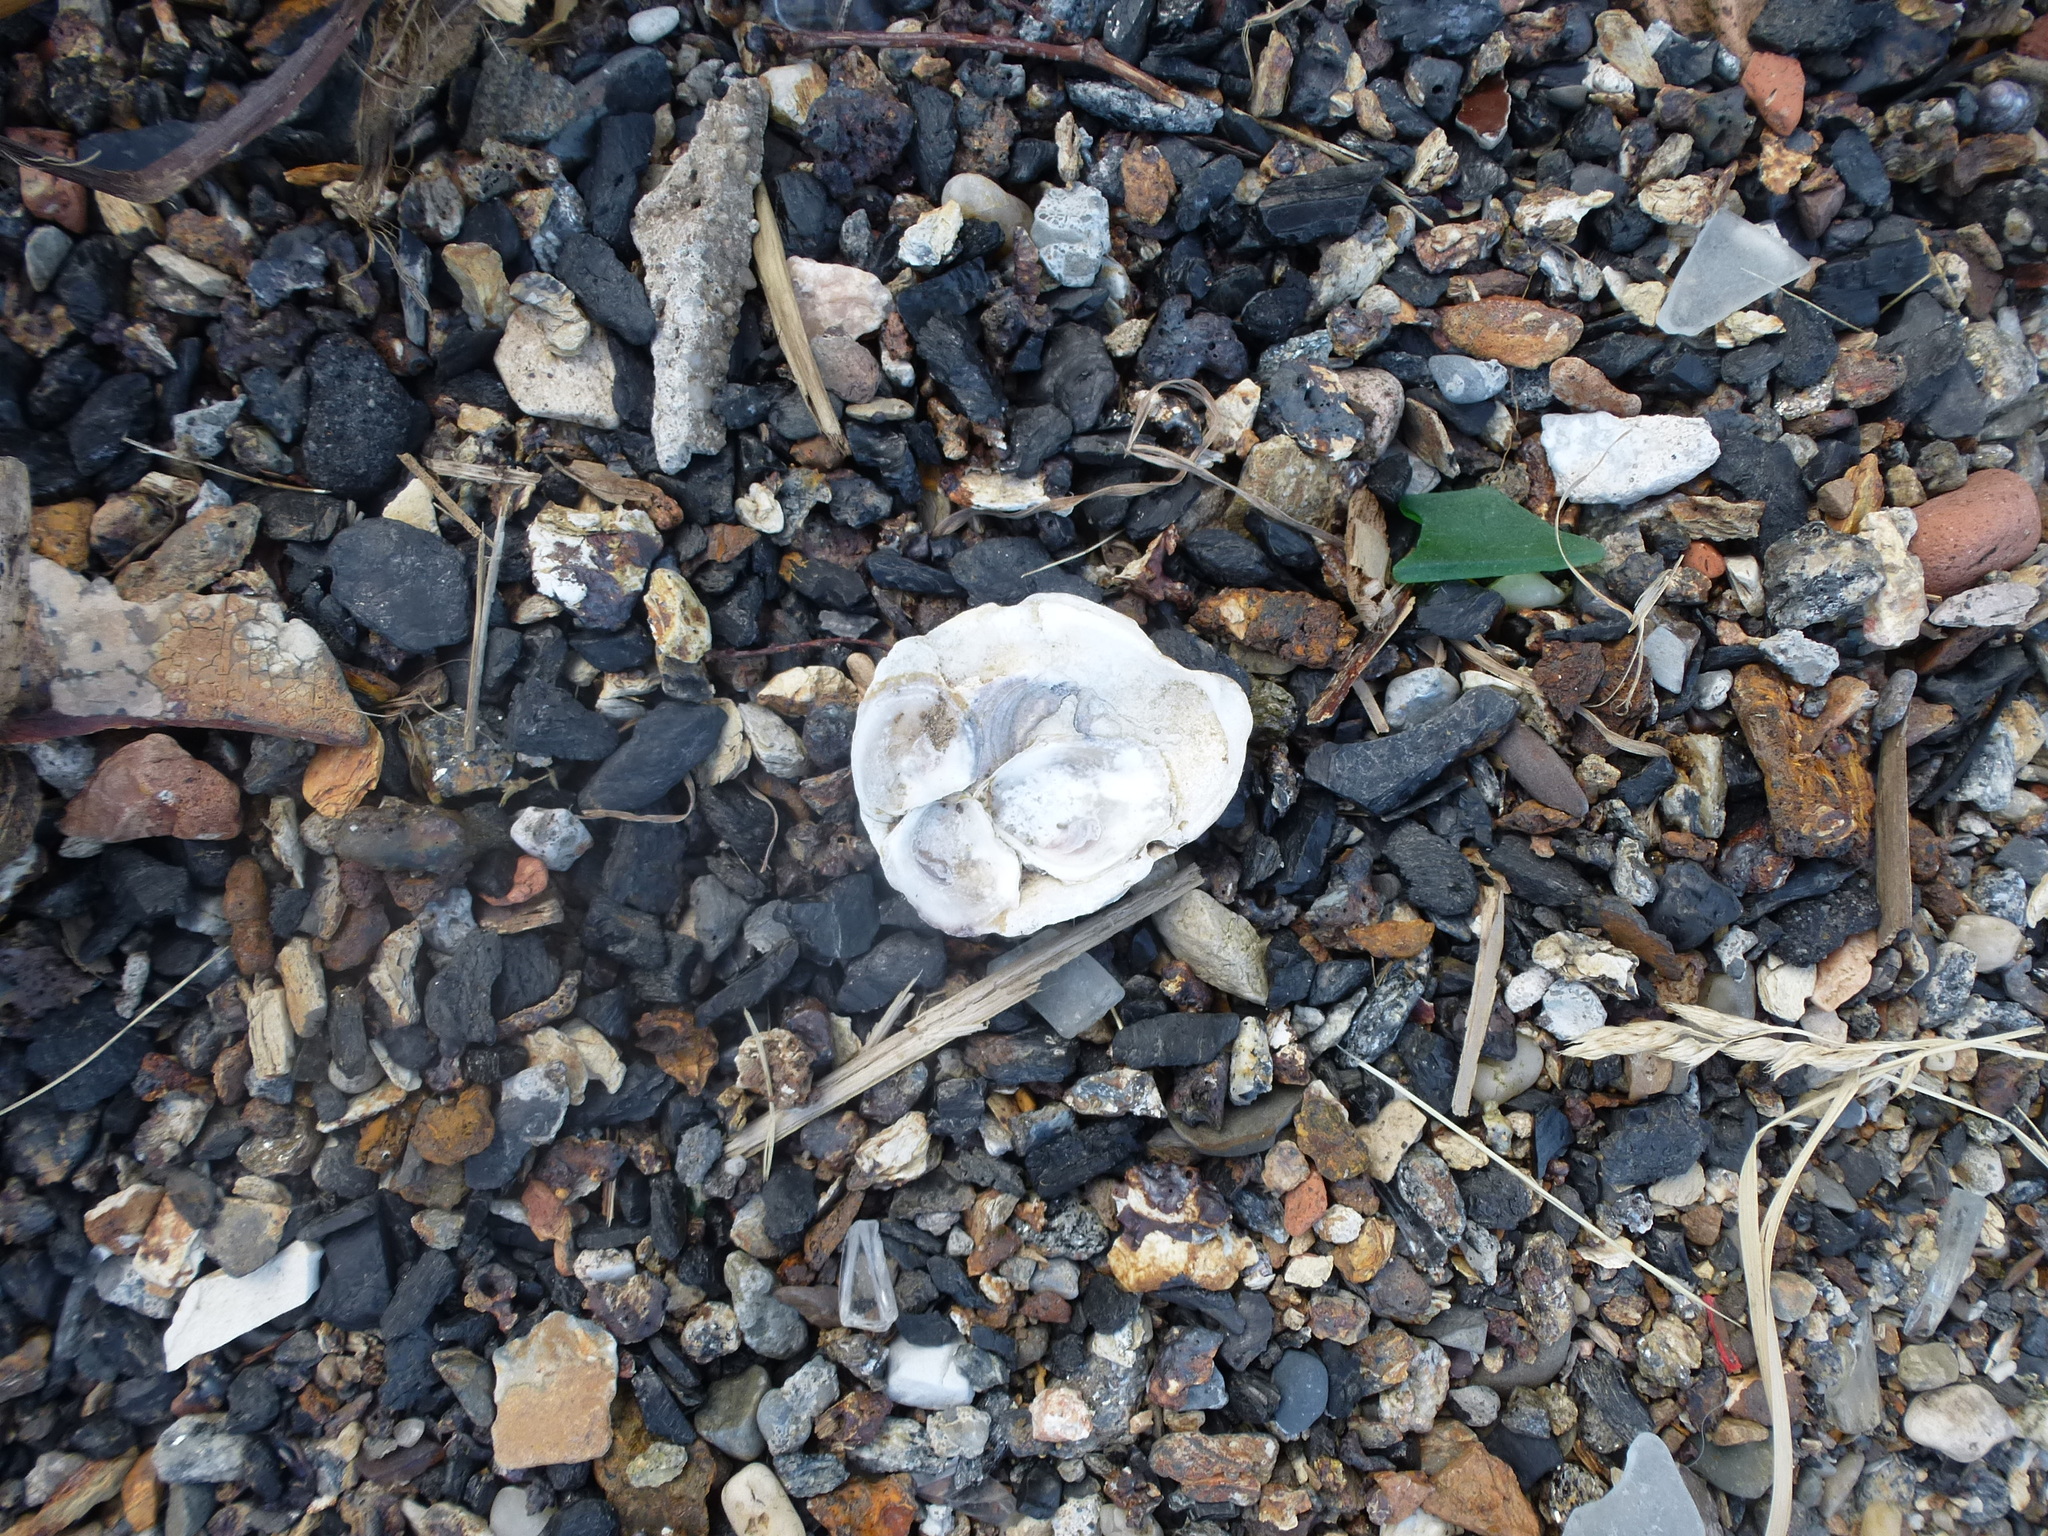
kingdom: Animalia
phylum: Mollusca
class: Bivalvia
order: Ostreida
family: Ostreidae
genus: Crassostrea
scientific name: Crassostrea virginica
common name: American oyster
